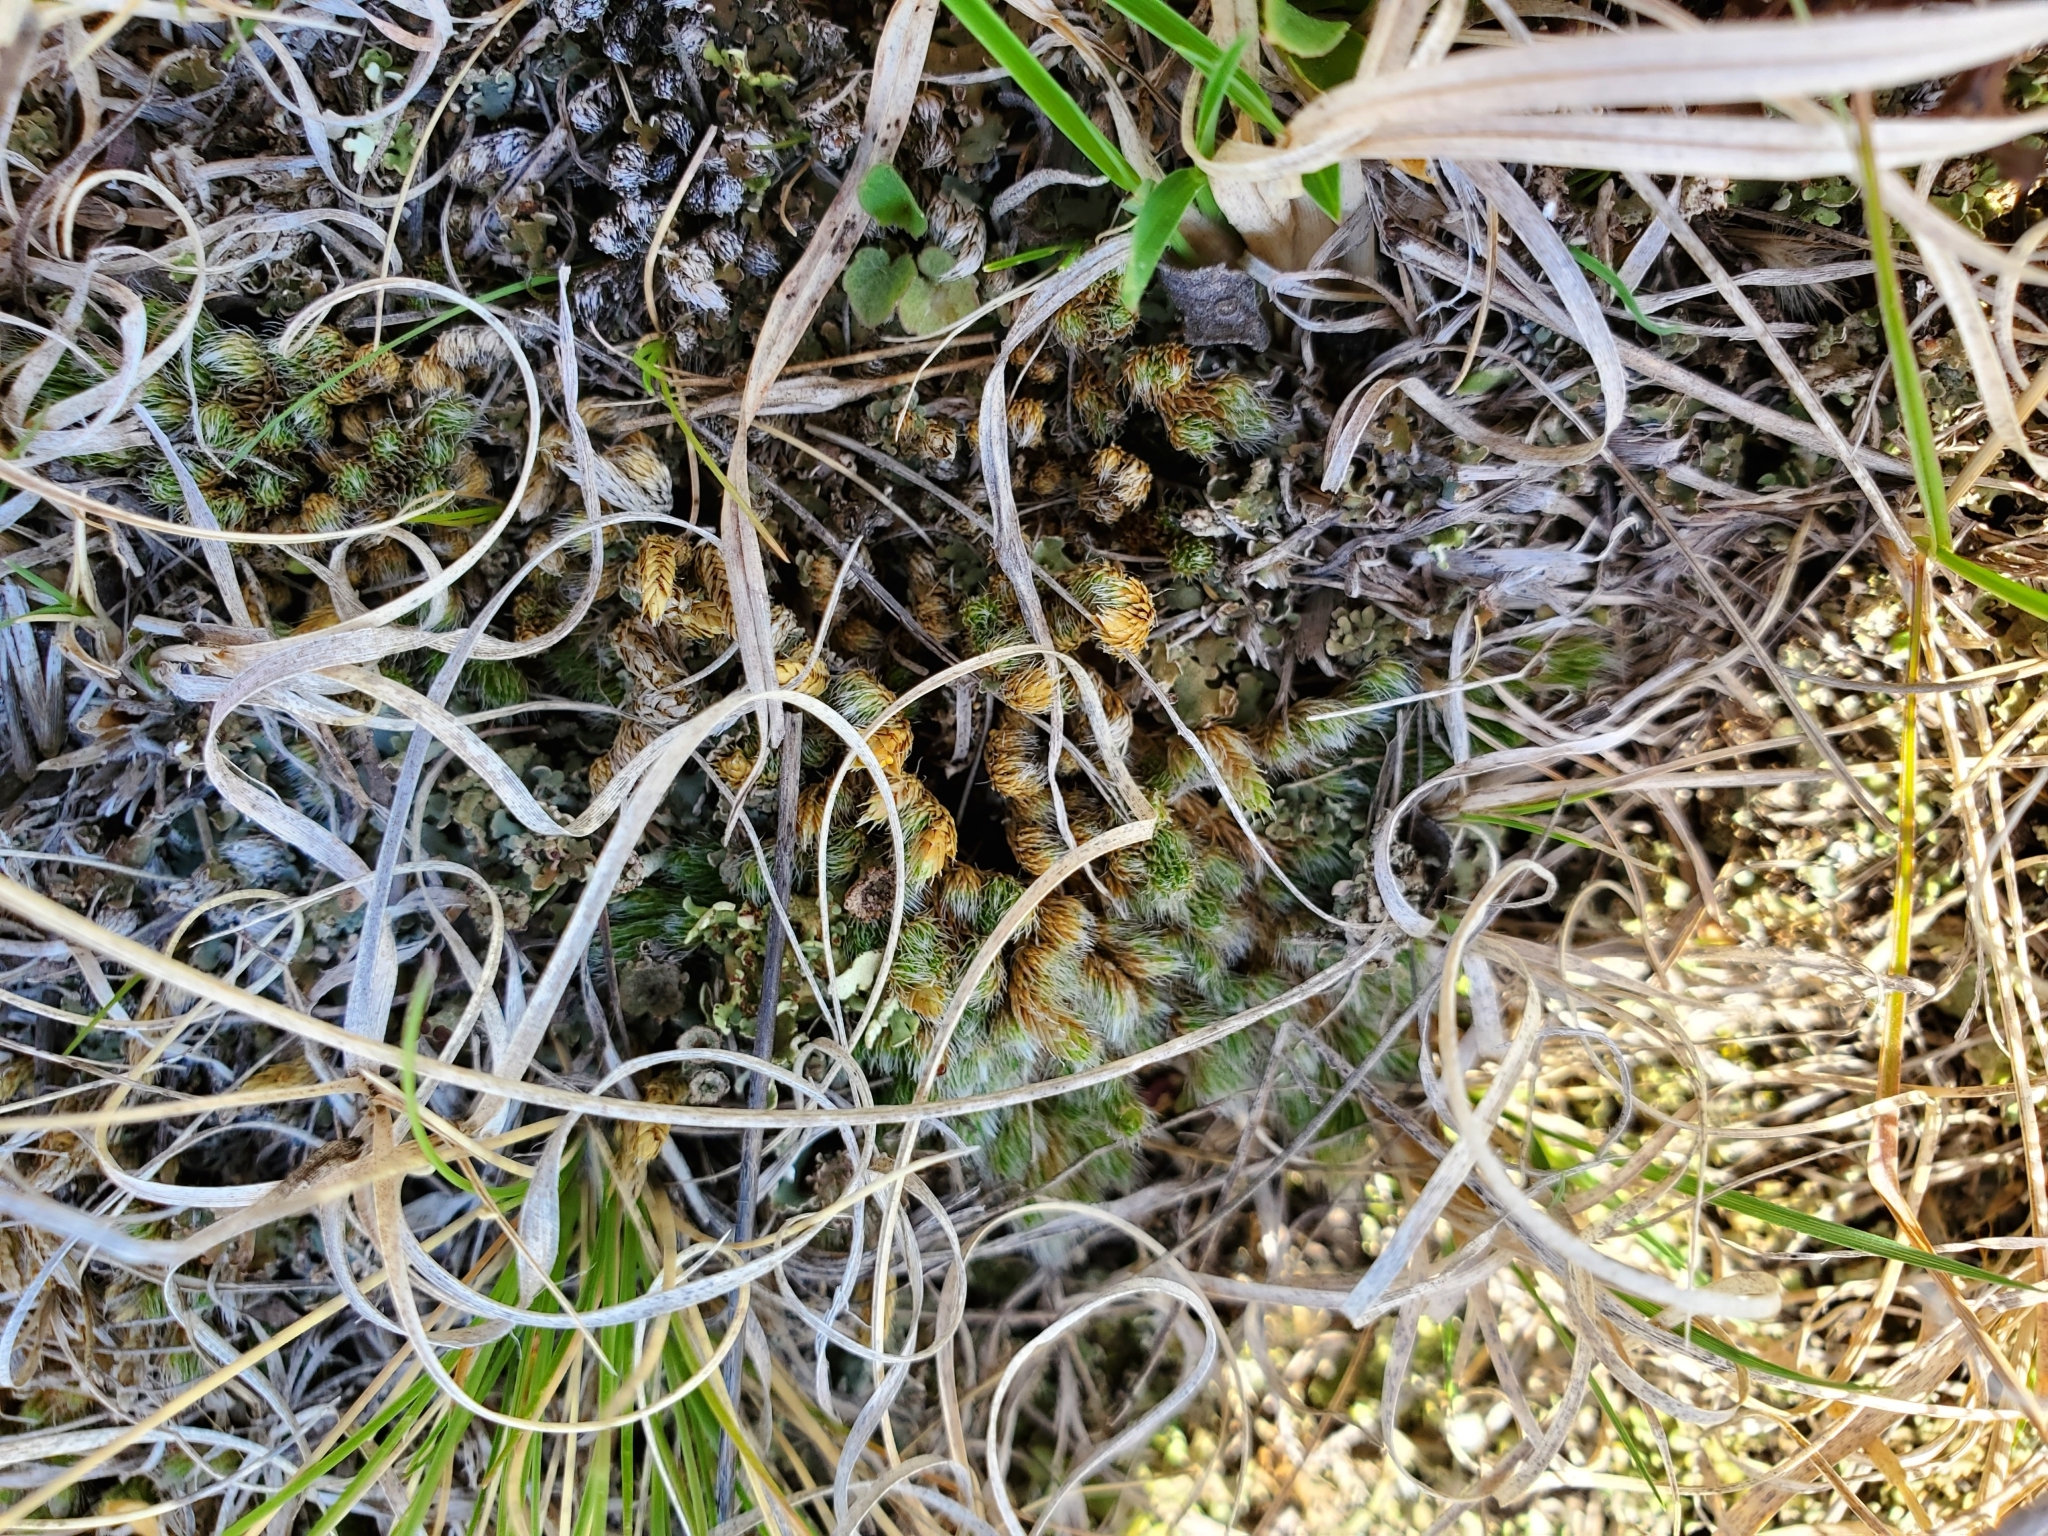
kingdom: Plantae
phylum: Tracheophyta
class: Lycopodiopsida
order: Selaginellales
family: Selaginellaceae
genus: Selaginella
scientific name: Selaginella densa
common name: Mountain spike-moss
